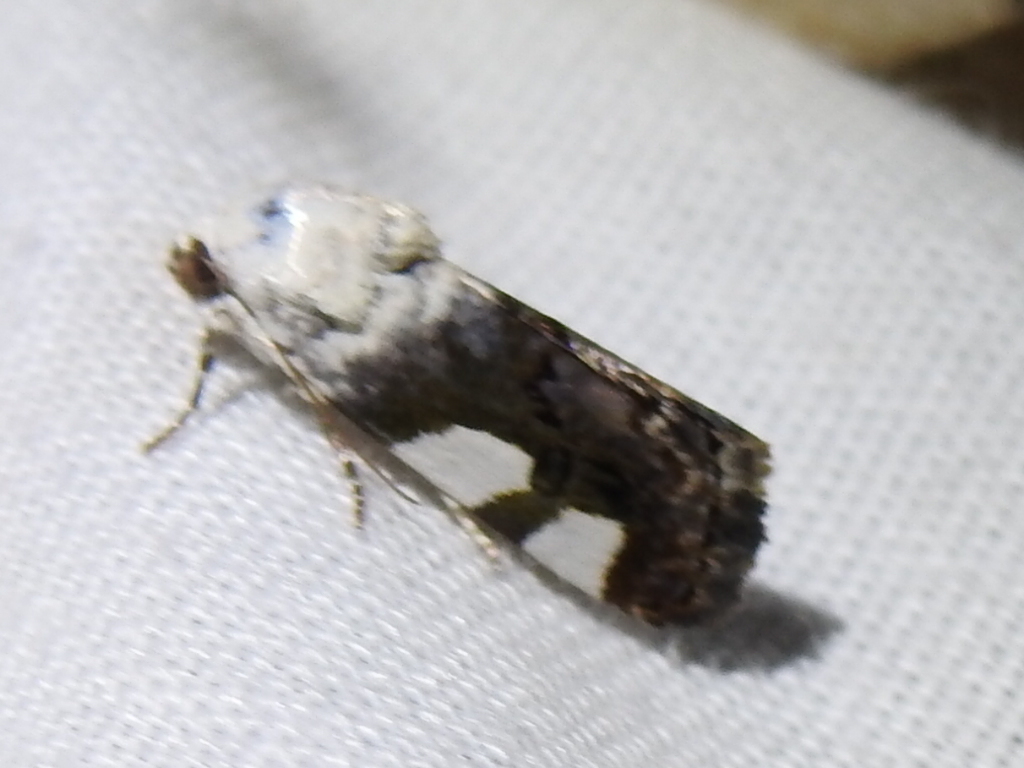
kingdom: Animalia
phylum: Arthropoda
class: Insecta
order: Lepidoptera
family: Noctuidae
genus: Acontia
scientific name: Acontia quadriplaga
